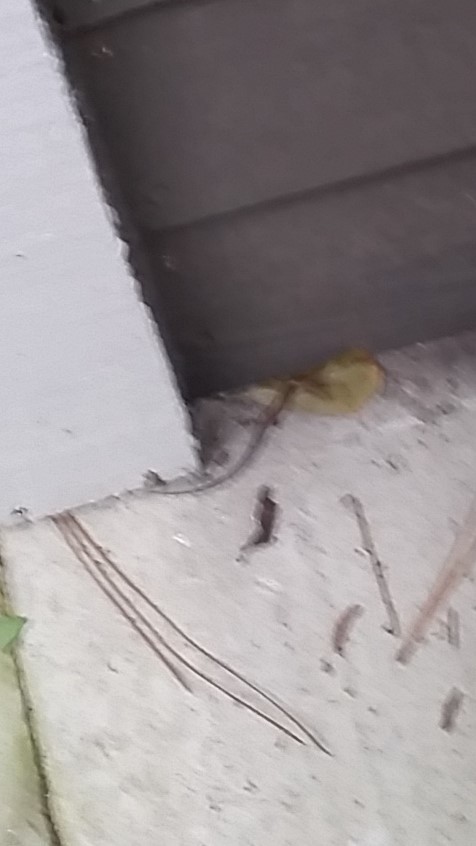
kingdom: Animalia
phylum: Chordata
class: Squamata
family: Scincidae
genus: Scincella
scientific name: Scincella lateralis
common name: Ground skink
